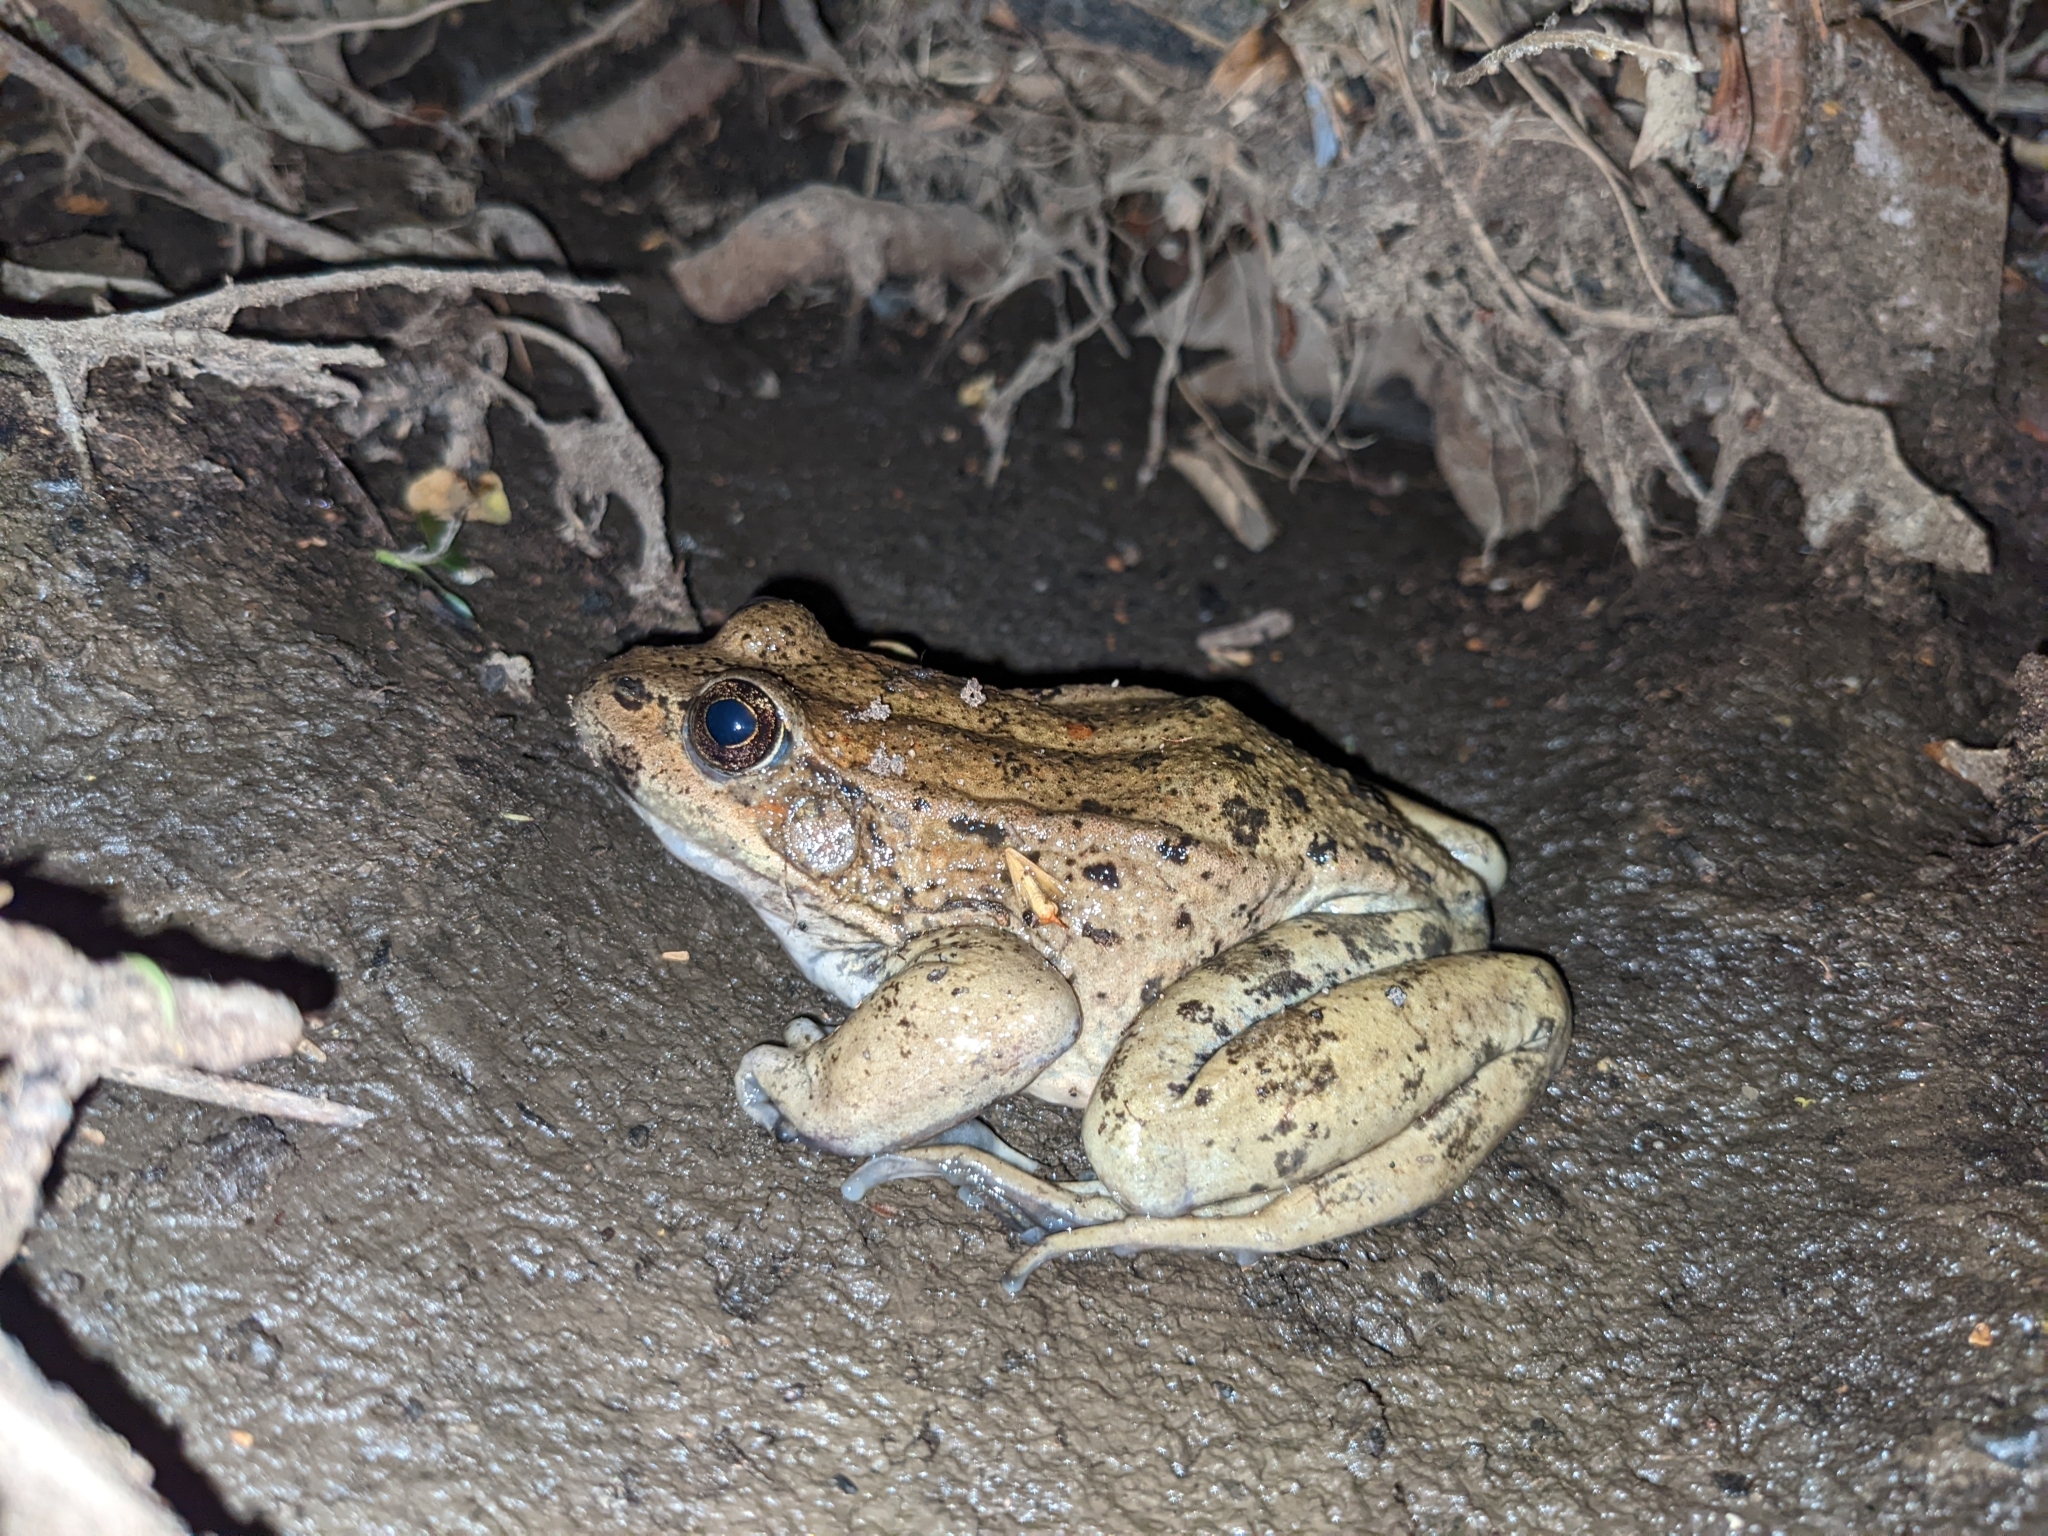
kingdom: Animalia
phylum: Chordata
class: Amphibia
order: Anura
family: Ranidae
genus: Rana
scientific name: Rana draytonii
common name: California red-legged frog
